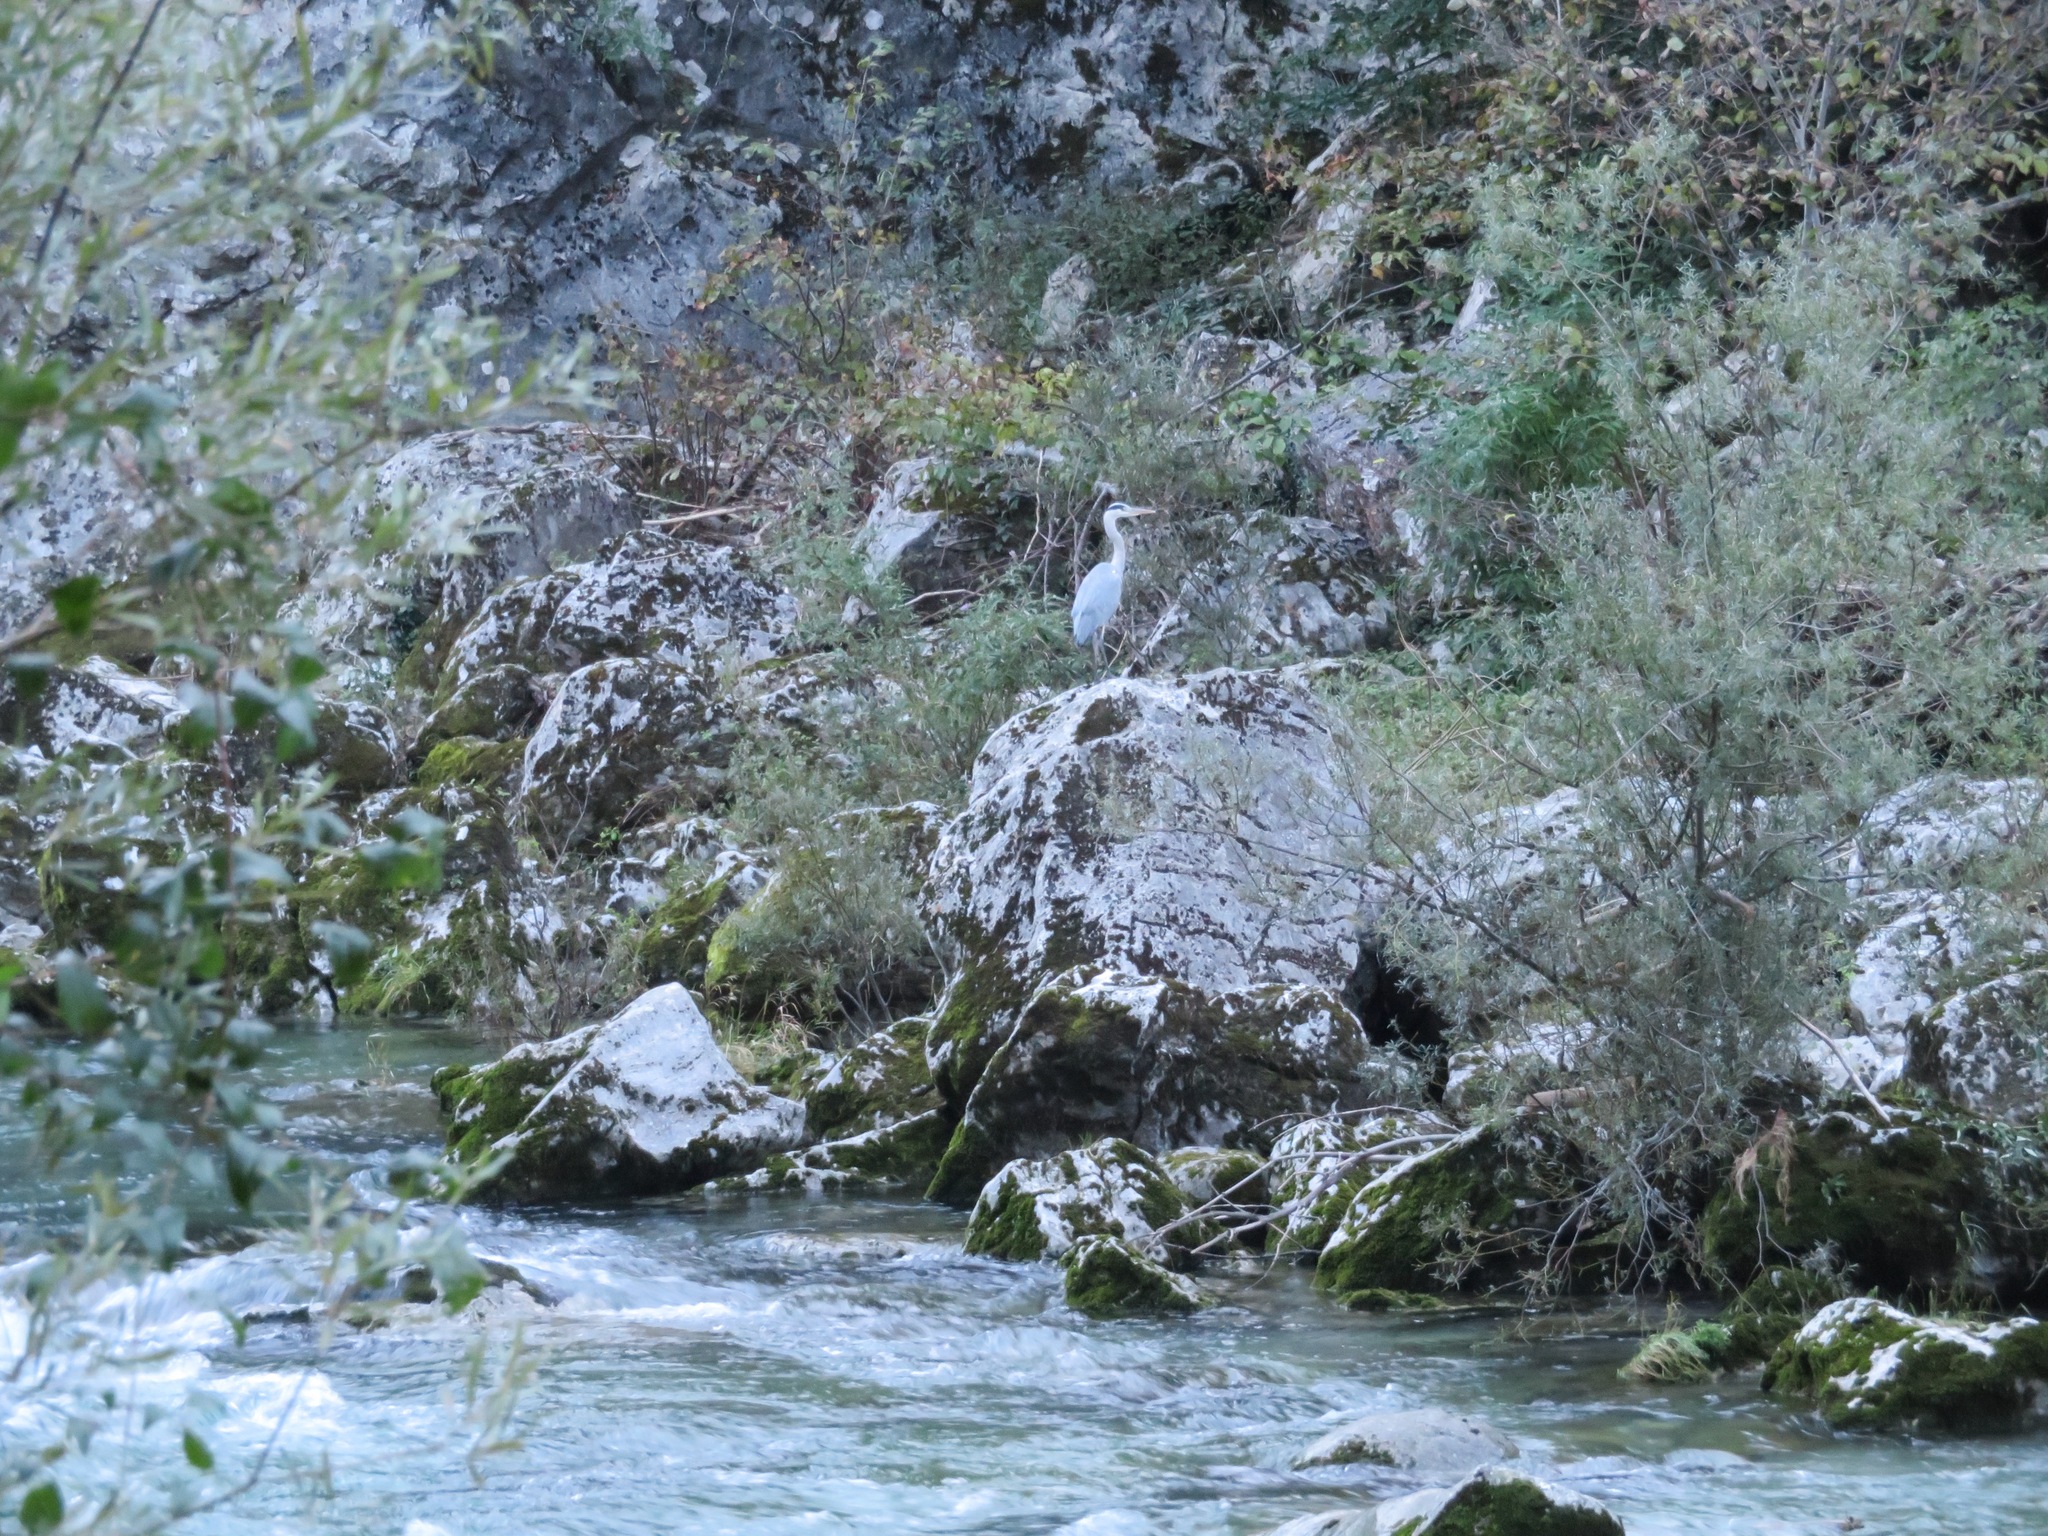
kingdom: Animalia
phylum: Chordata
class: Aves
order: Pelecaniformes
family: Ardeidae
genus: Ardea
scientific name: Ardea cinerea
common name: Grey heron
